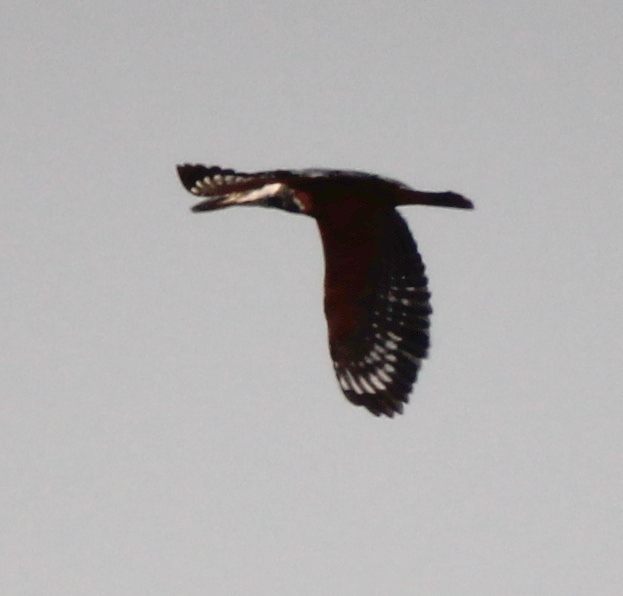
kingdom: Animalia
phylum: Chordata
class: Aves
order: Coraciiformes
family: Alcedinidae
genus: Megaceryle
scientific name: Megaceryle torquata
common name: Ringed kingfisher
